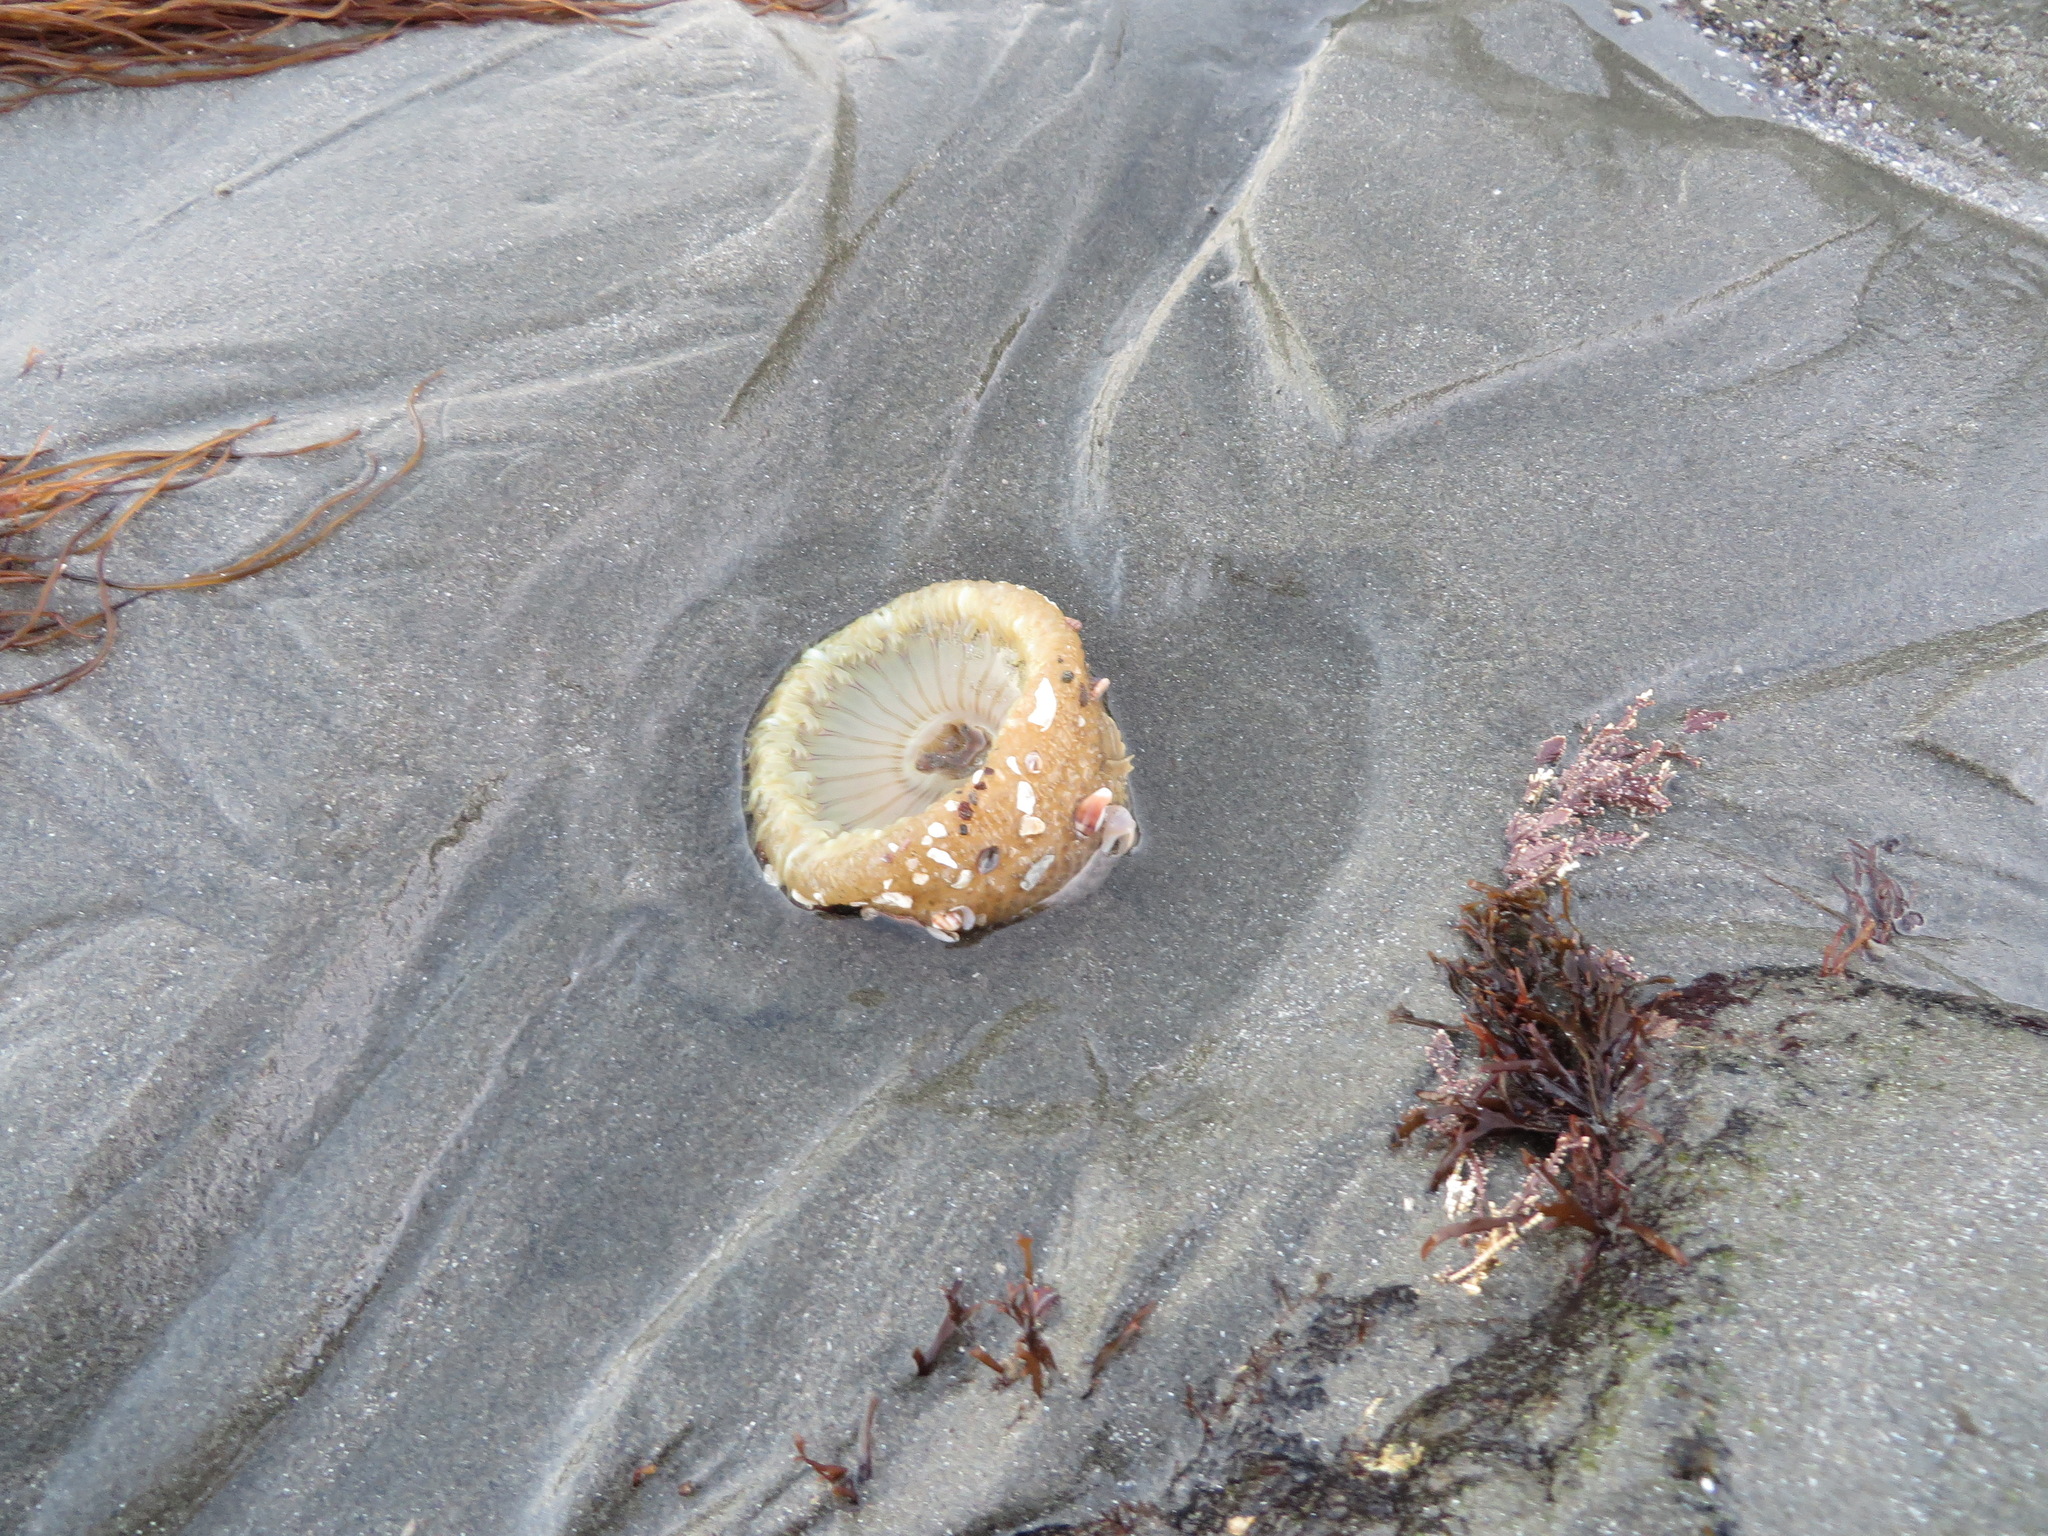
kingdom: Animalia
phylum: Cnidaria
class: Anthozoa
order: Actiniaria
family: Actiniidae
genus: Anthopleura
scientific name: Anthopleura sola
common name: Sun anemone
